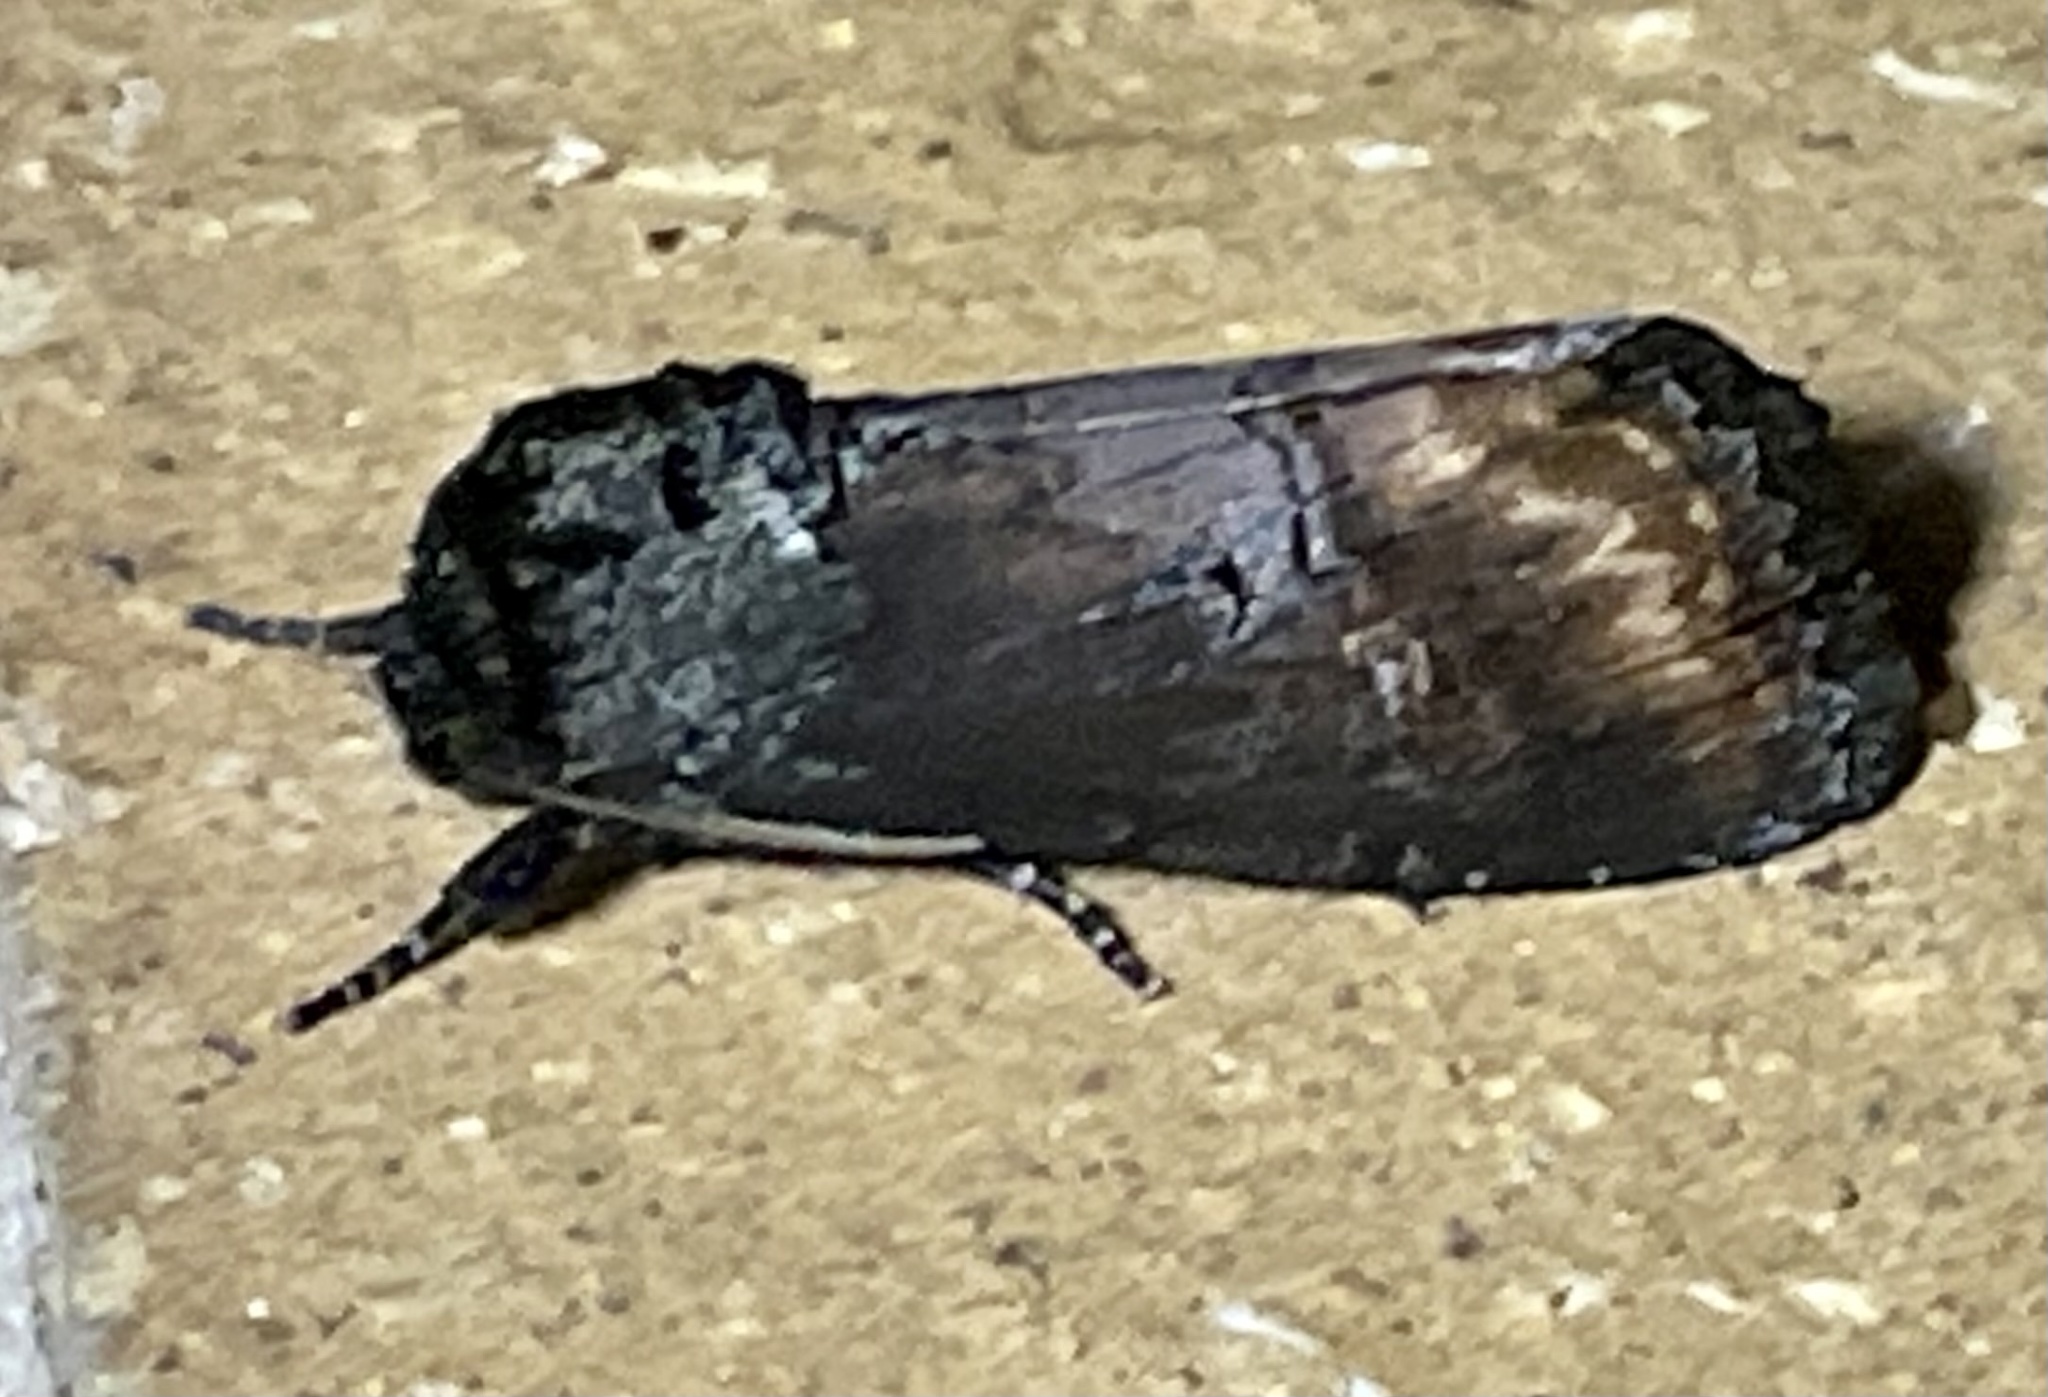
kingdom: Animalia
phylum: Arthropoda
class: Insecta
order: Lepidoptera
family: Noctuidae
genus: Brithys
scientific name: Brithys crini
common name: Kew arches
